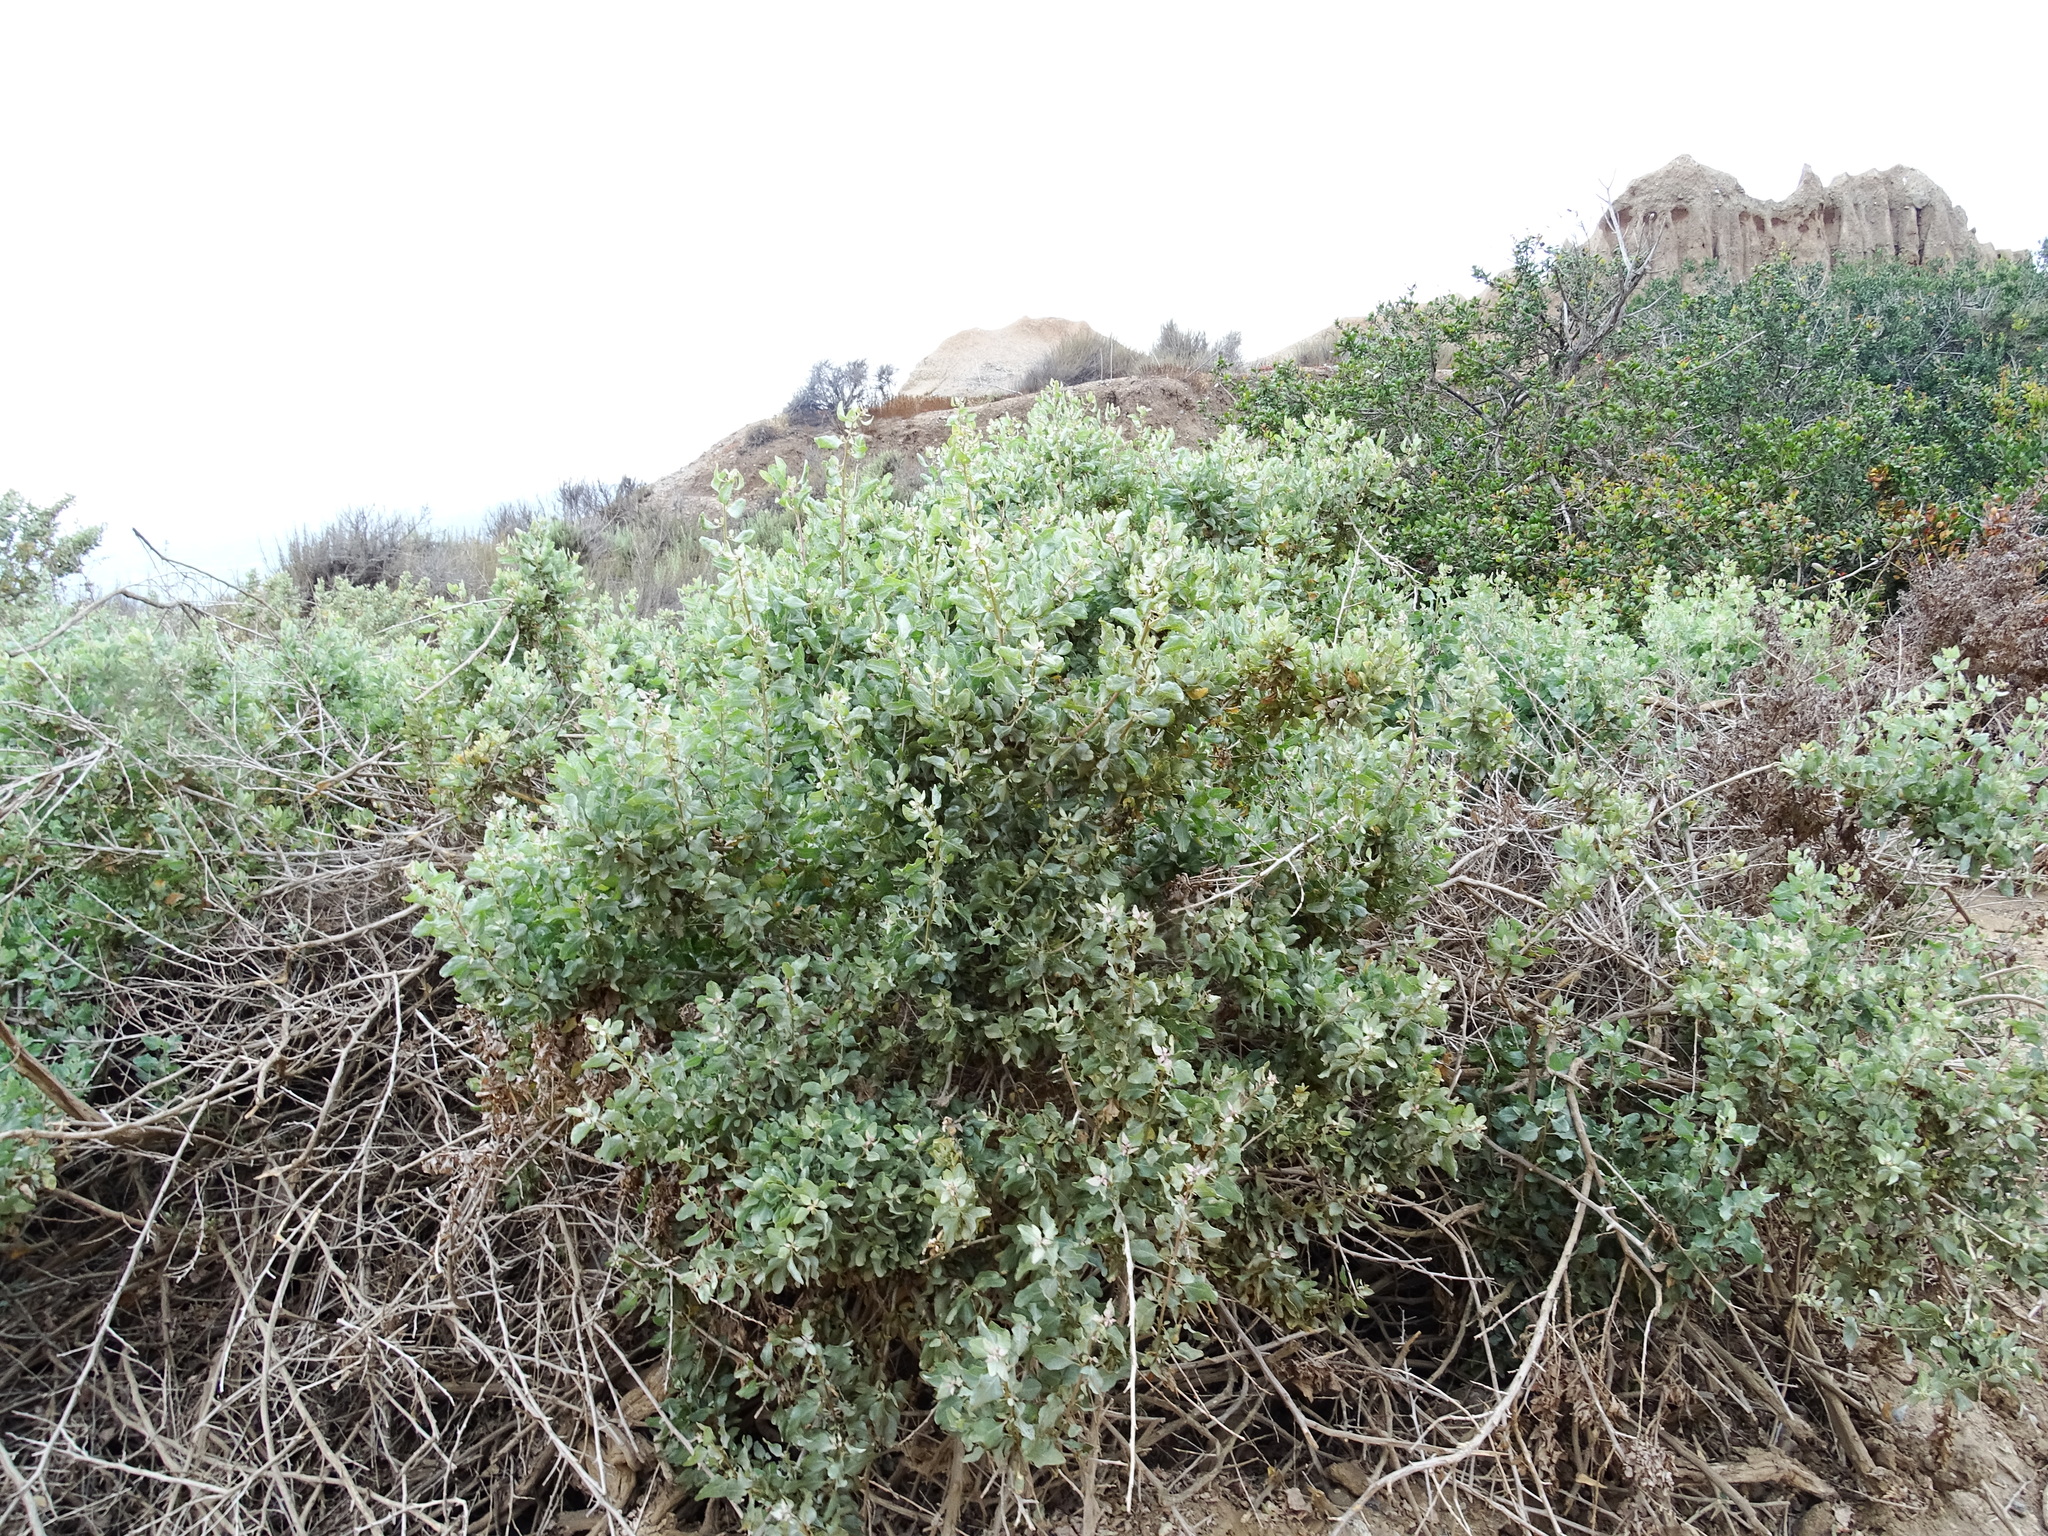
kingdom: Plantae
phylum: Tracheophyta
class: Magnoliopsida
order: Caryophyllales
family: Amaranthaceae
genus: Atriplex
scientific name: Atriplex lentiformis
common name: Big saltbush
